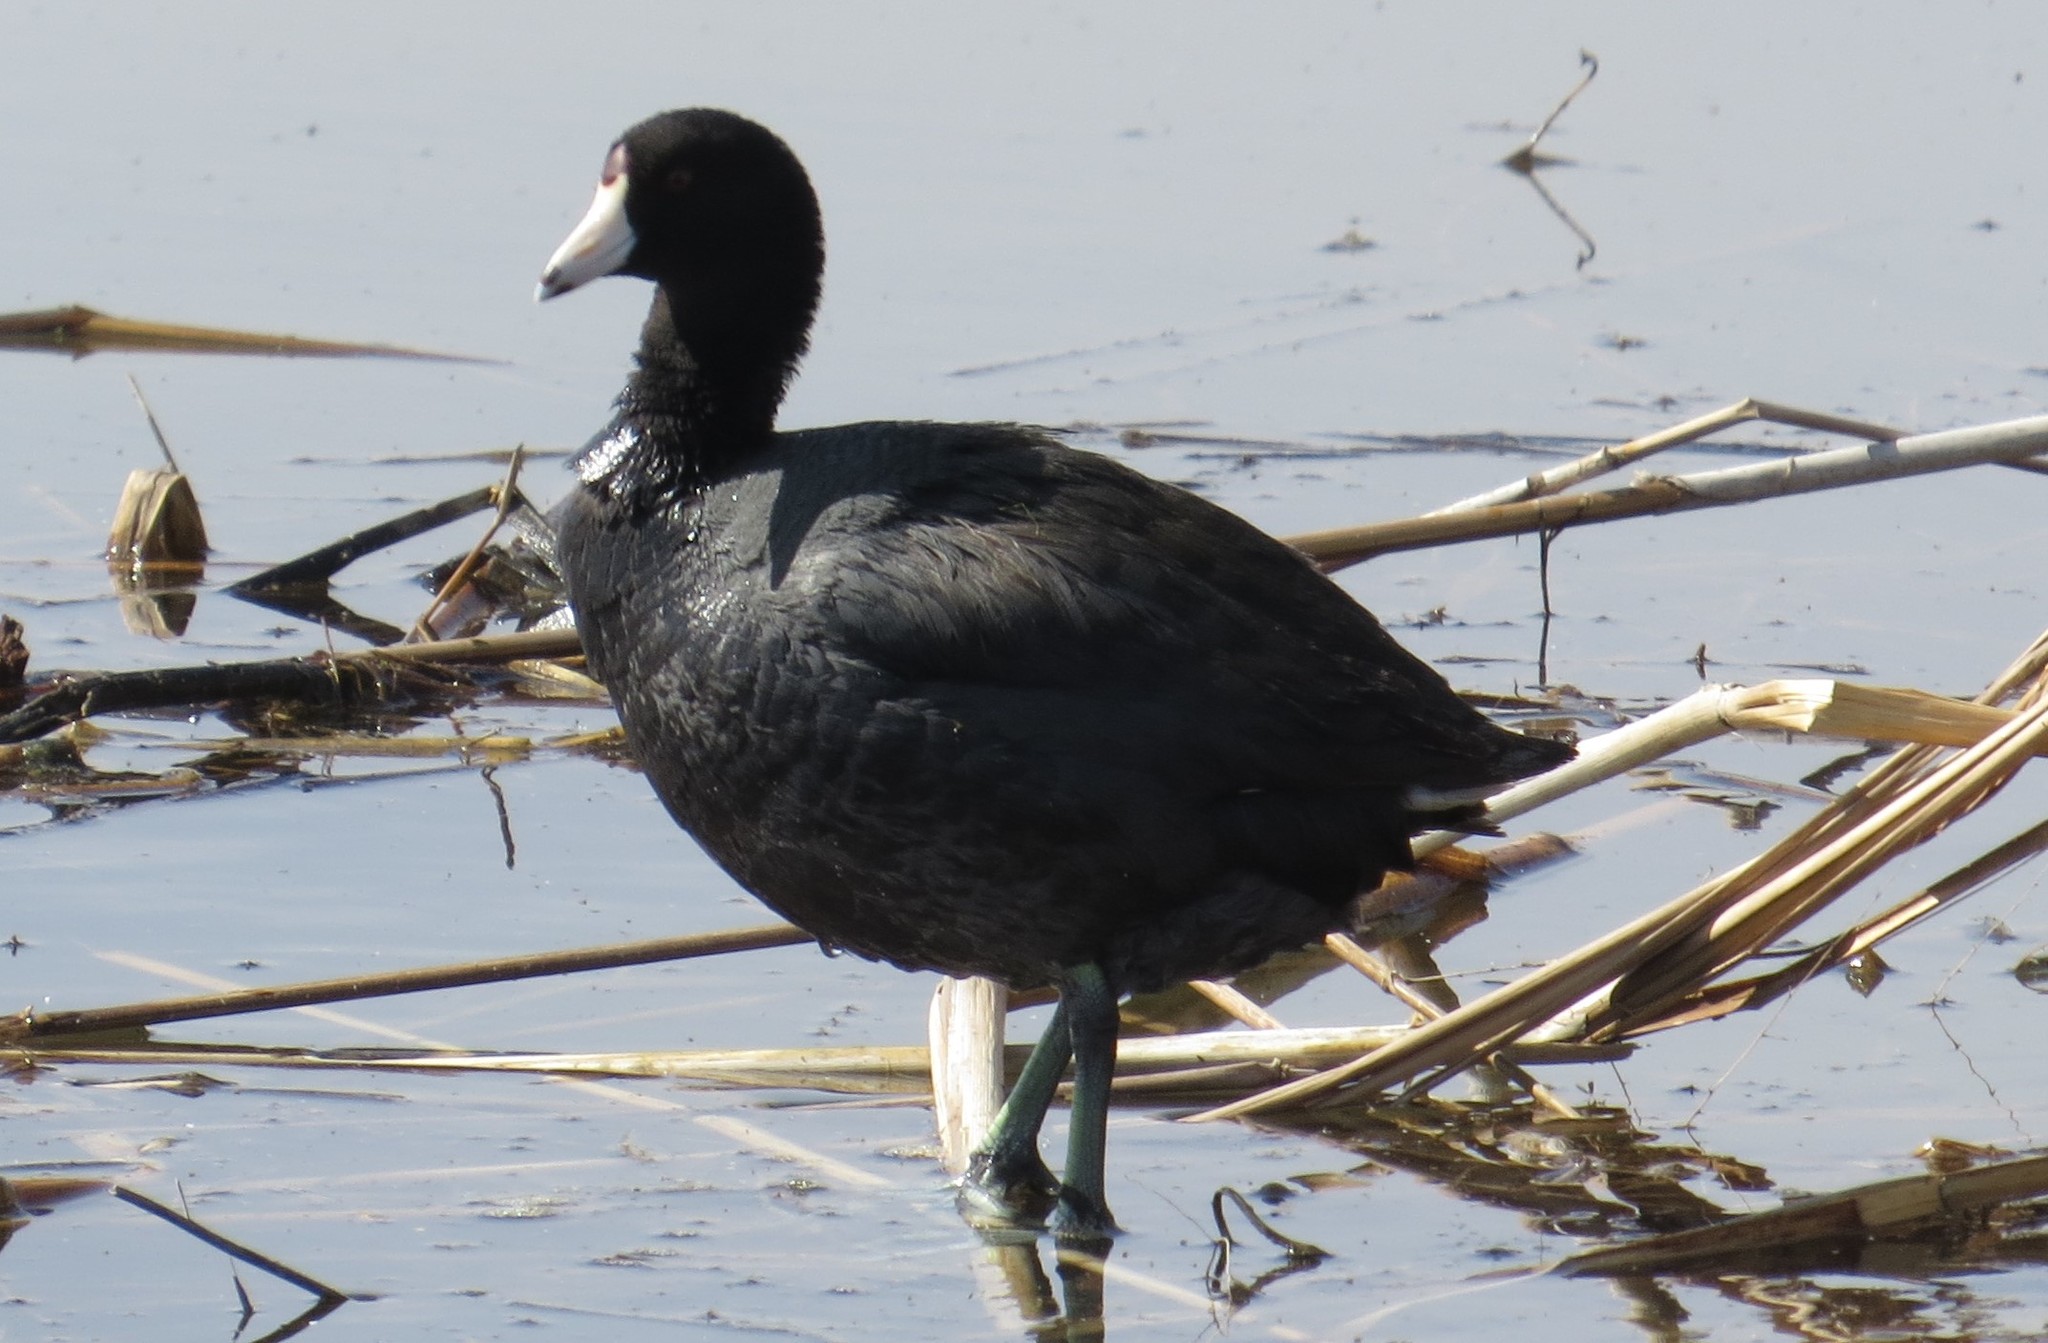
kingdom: Animalia
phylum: Chordata
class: Aves
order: Gruiformes
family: Rallidae
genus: Fulica
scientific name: Fulica americana
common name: American coot
